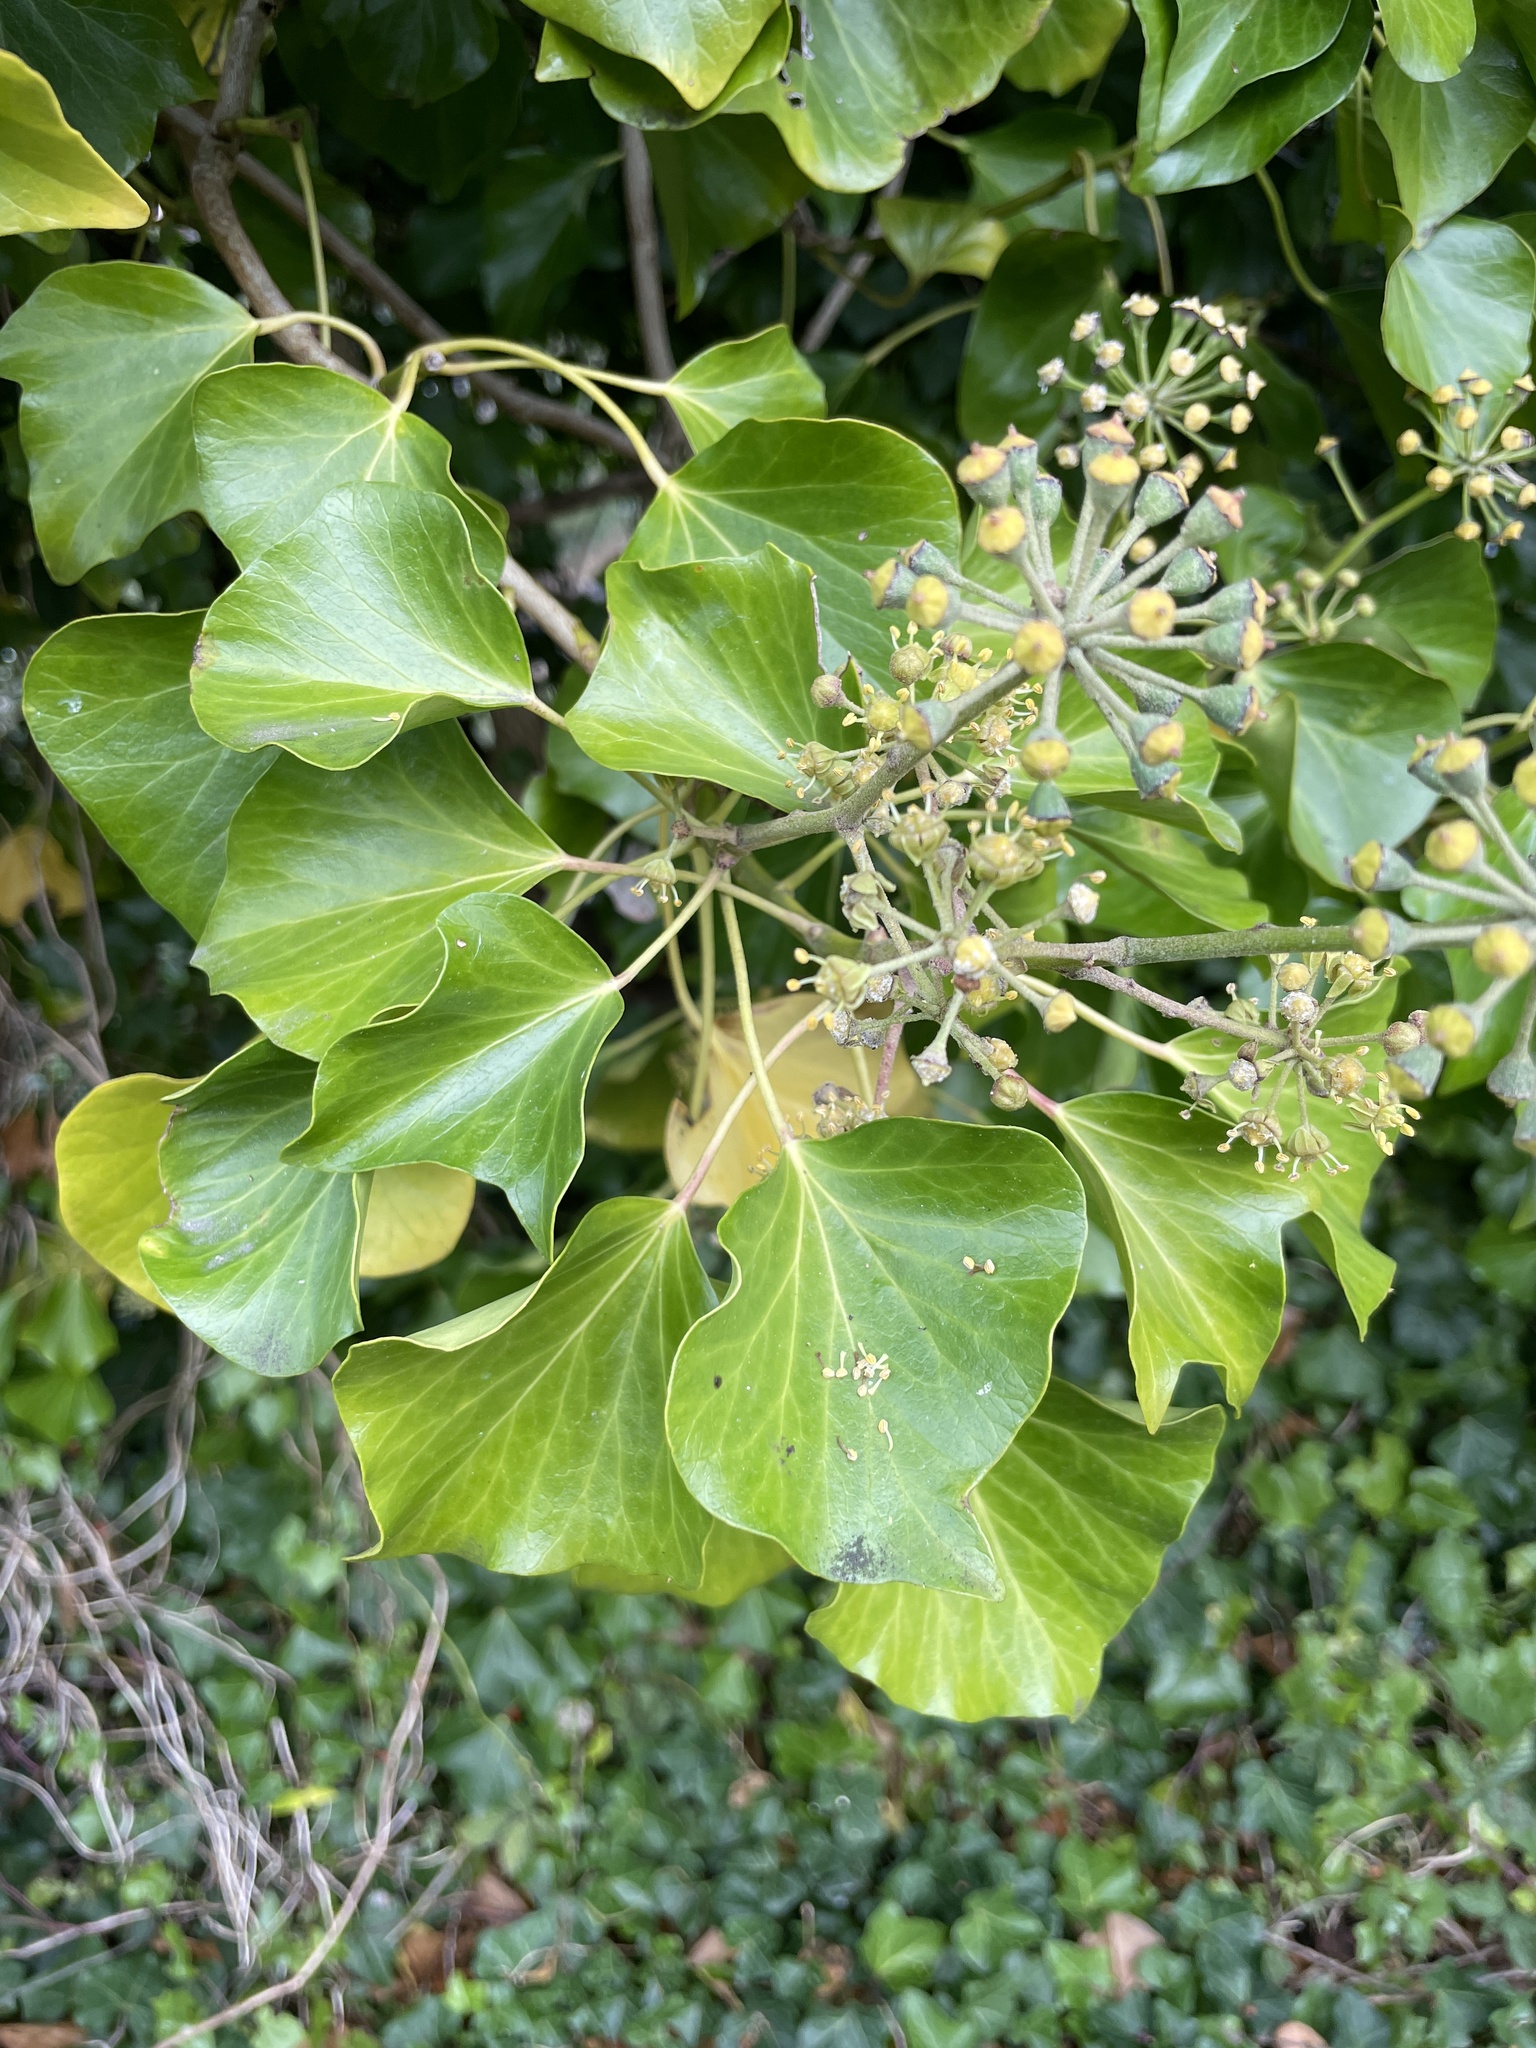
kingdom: Plantae
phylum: Tracheophyta
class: Magnoliopsida
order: Apiales
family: Araliaceae
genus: Hedera
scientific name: Hedera helix
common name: Ivy
